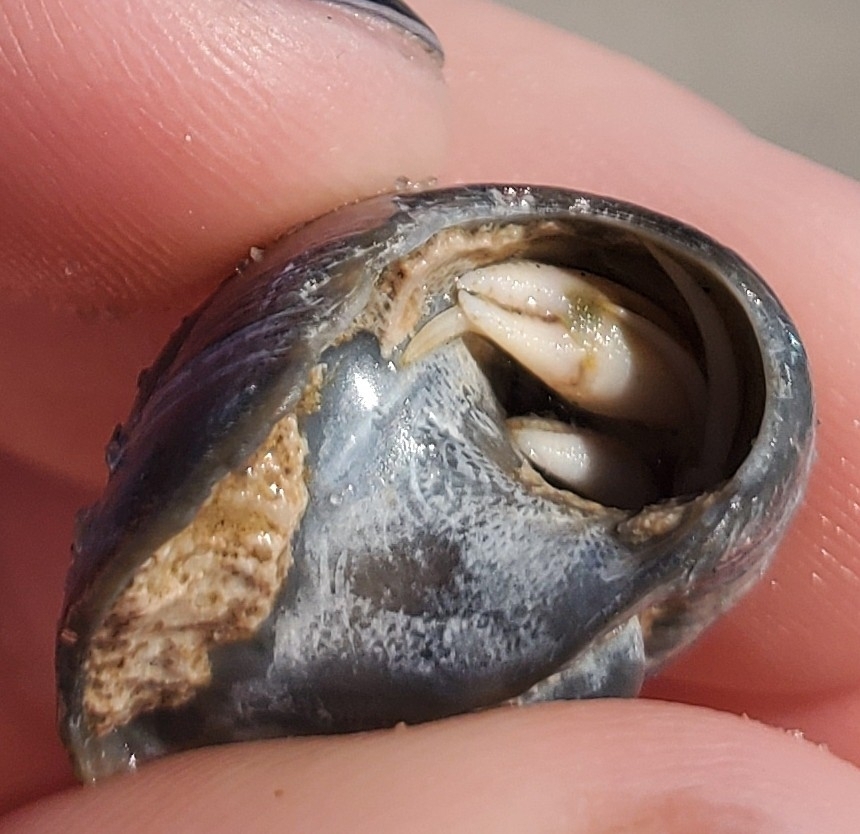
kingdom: Animalia
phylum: Arthropoda
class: Malacostraca
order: Decapoda
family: Paguridae
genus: Pagurus
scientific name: Pagurus longicarpus
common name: Long-armed hermit crab
